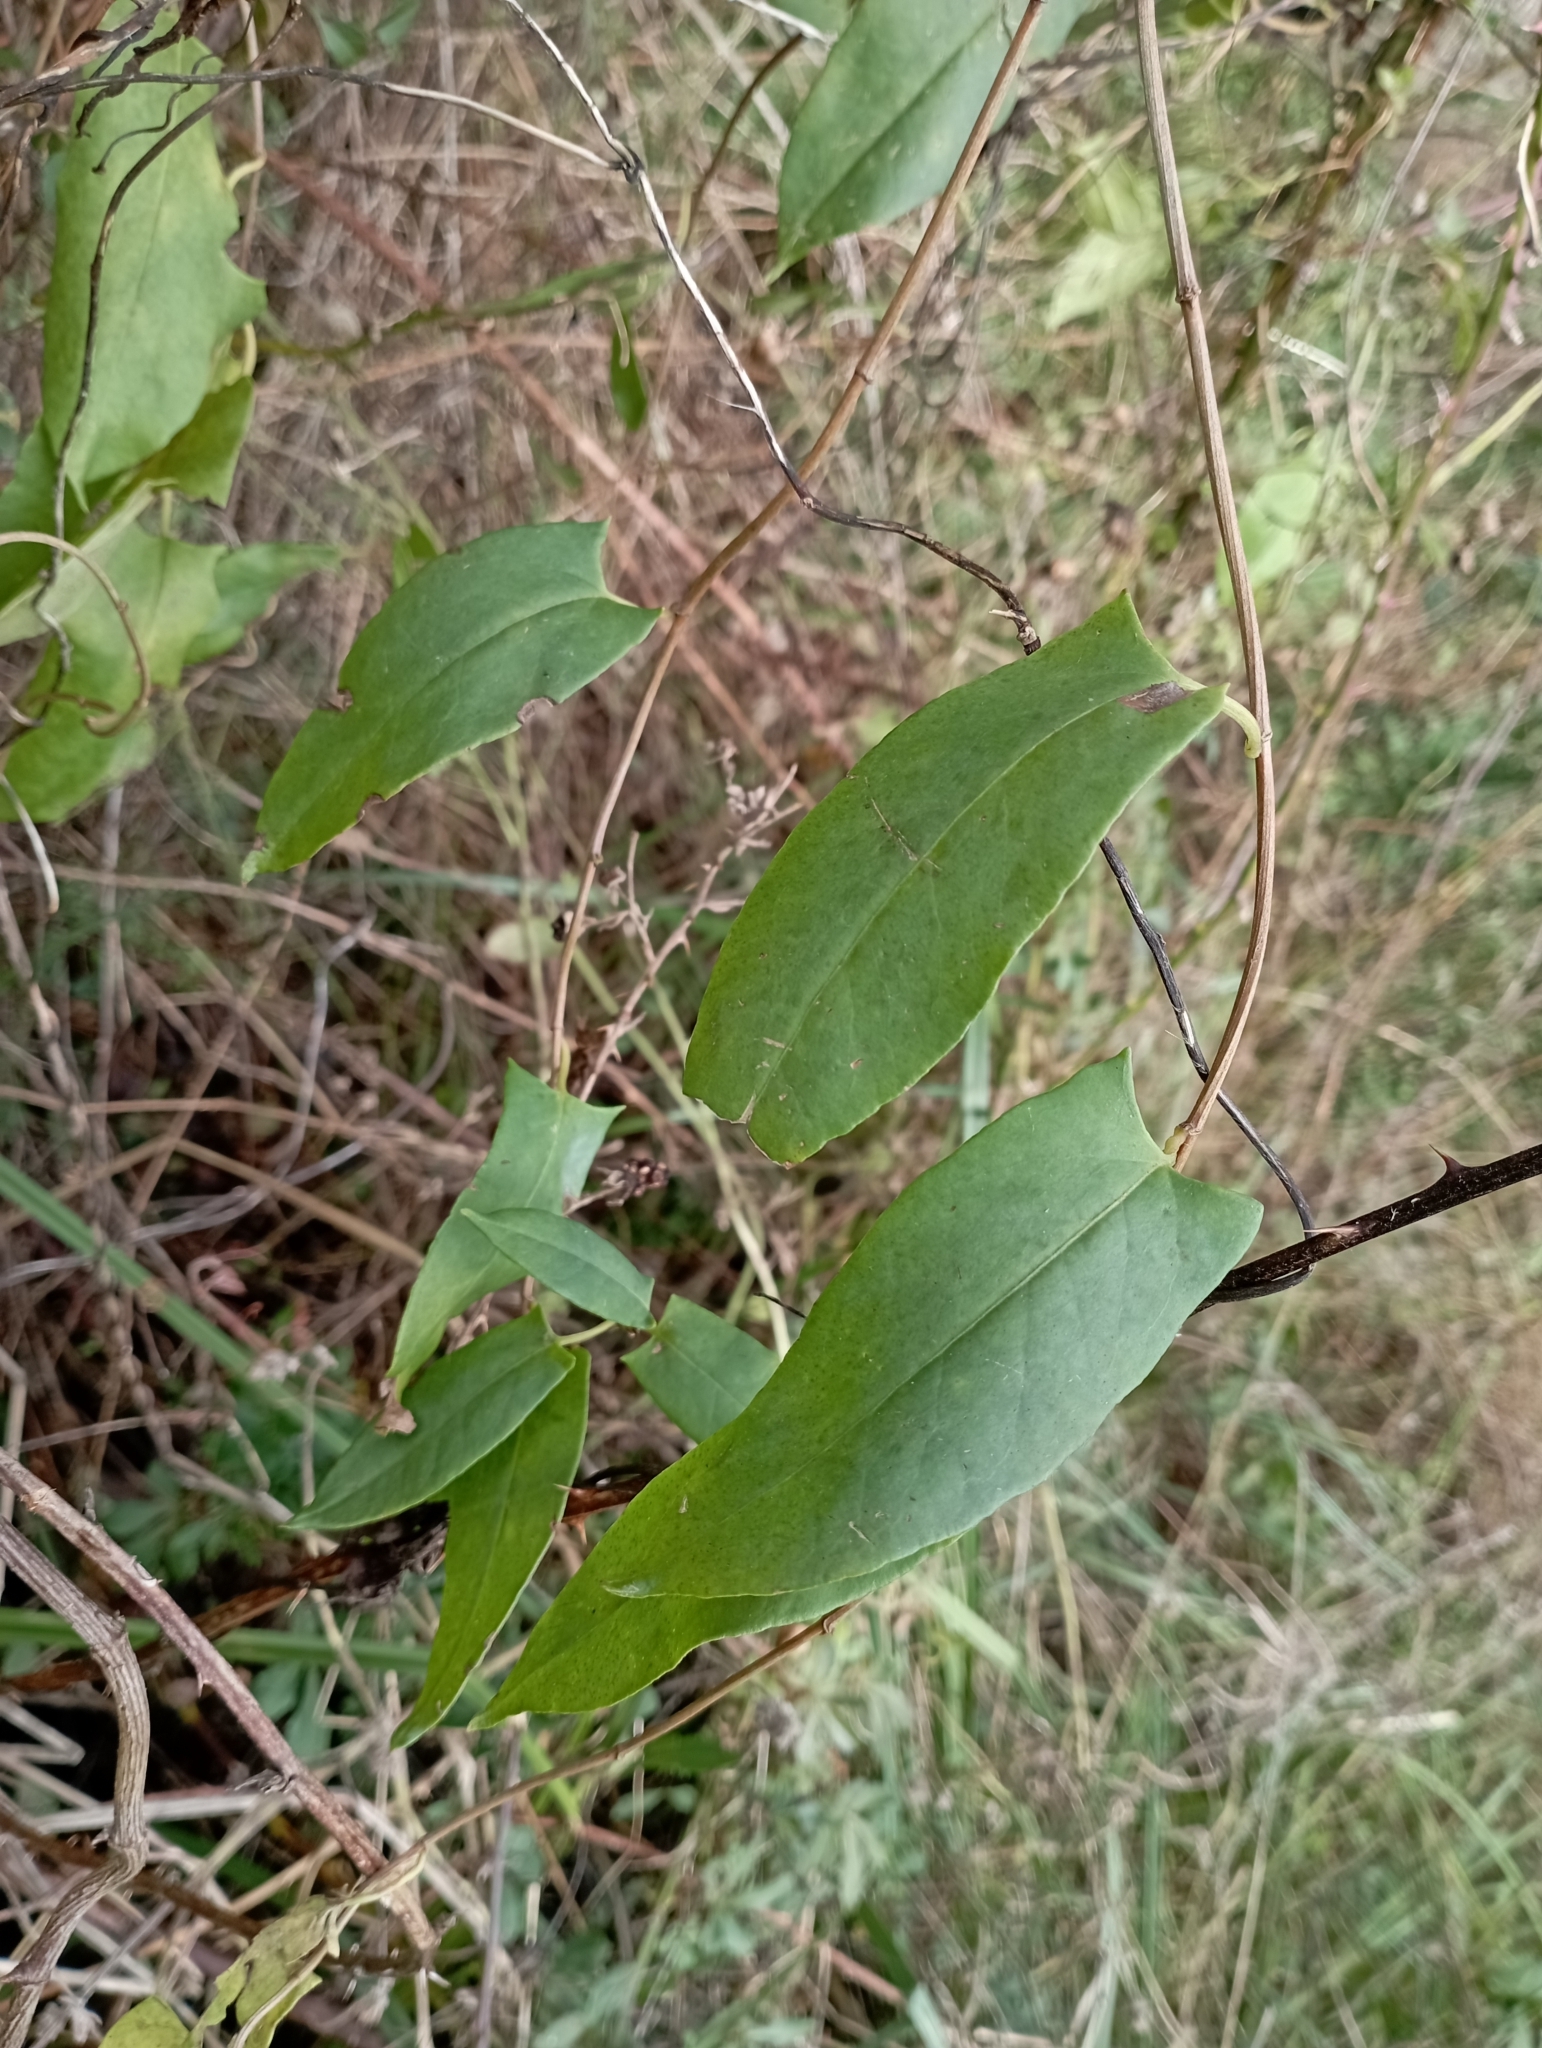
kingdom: Plantae
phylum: Tracheophyta
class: Magnoliopsida
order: Caryophyllales
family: Polygonaceae
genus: Muehlenbeckia
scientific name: Muehlenbeckia hastulata
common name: Wirevine
